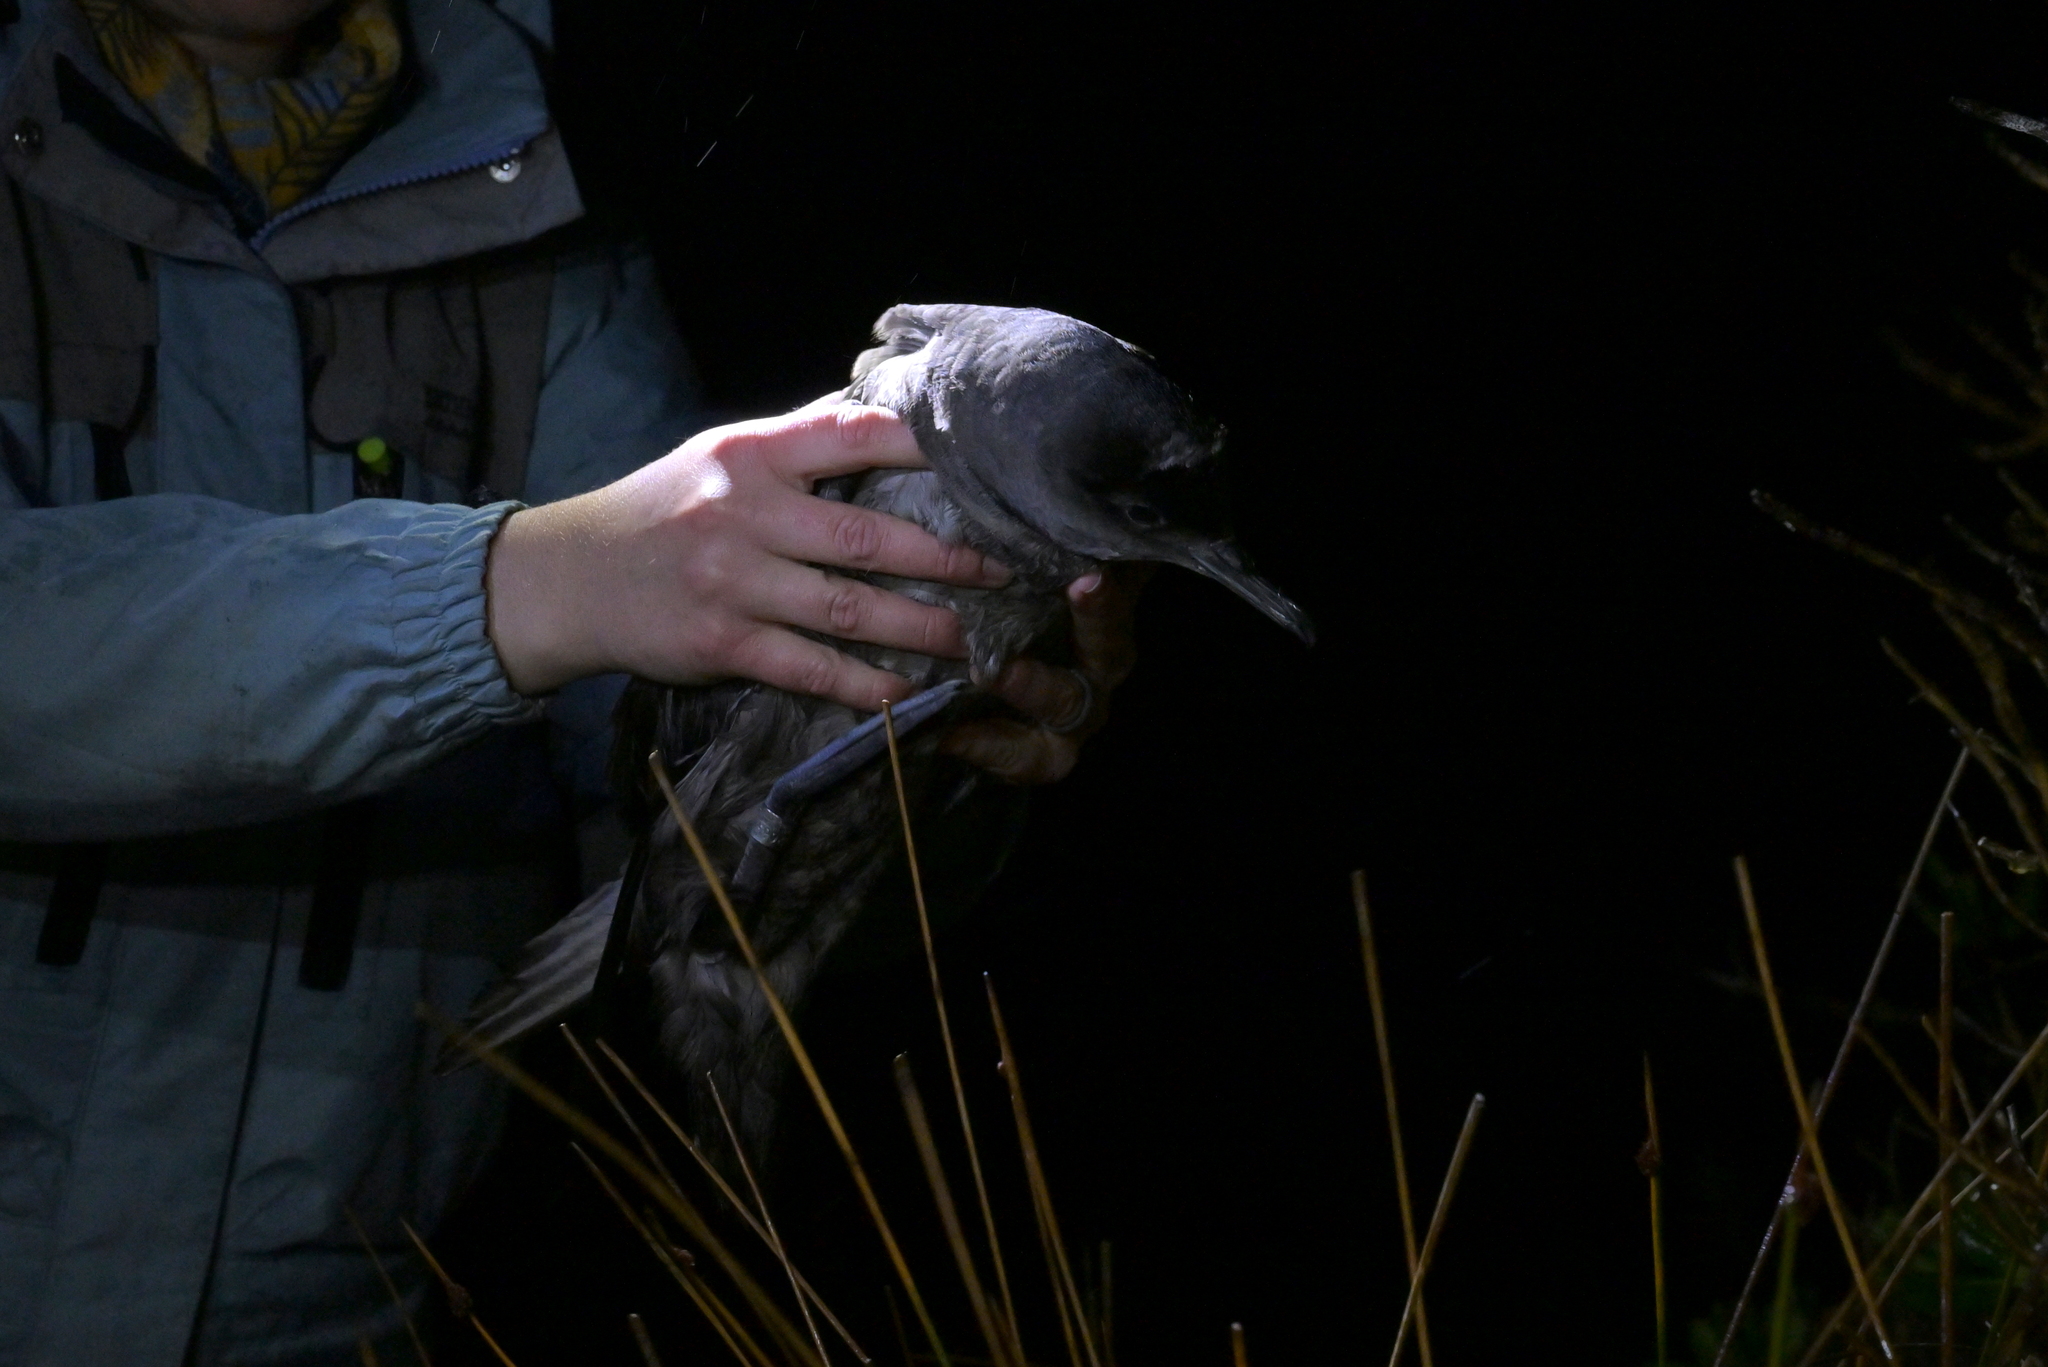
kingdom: Animalia
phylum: Chordata
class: Aves
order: Procellariiformes
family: Procellariidae
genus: Puffinus
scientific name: Puffinus griseus
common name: Sooty shearwater
